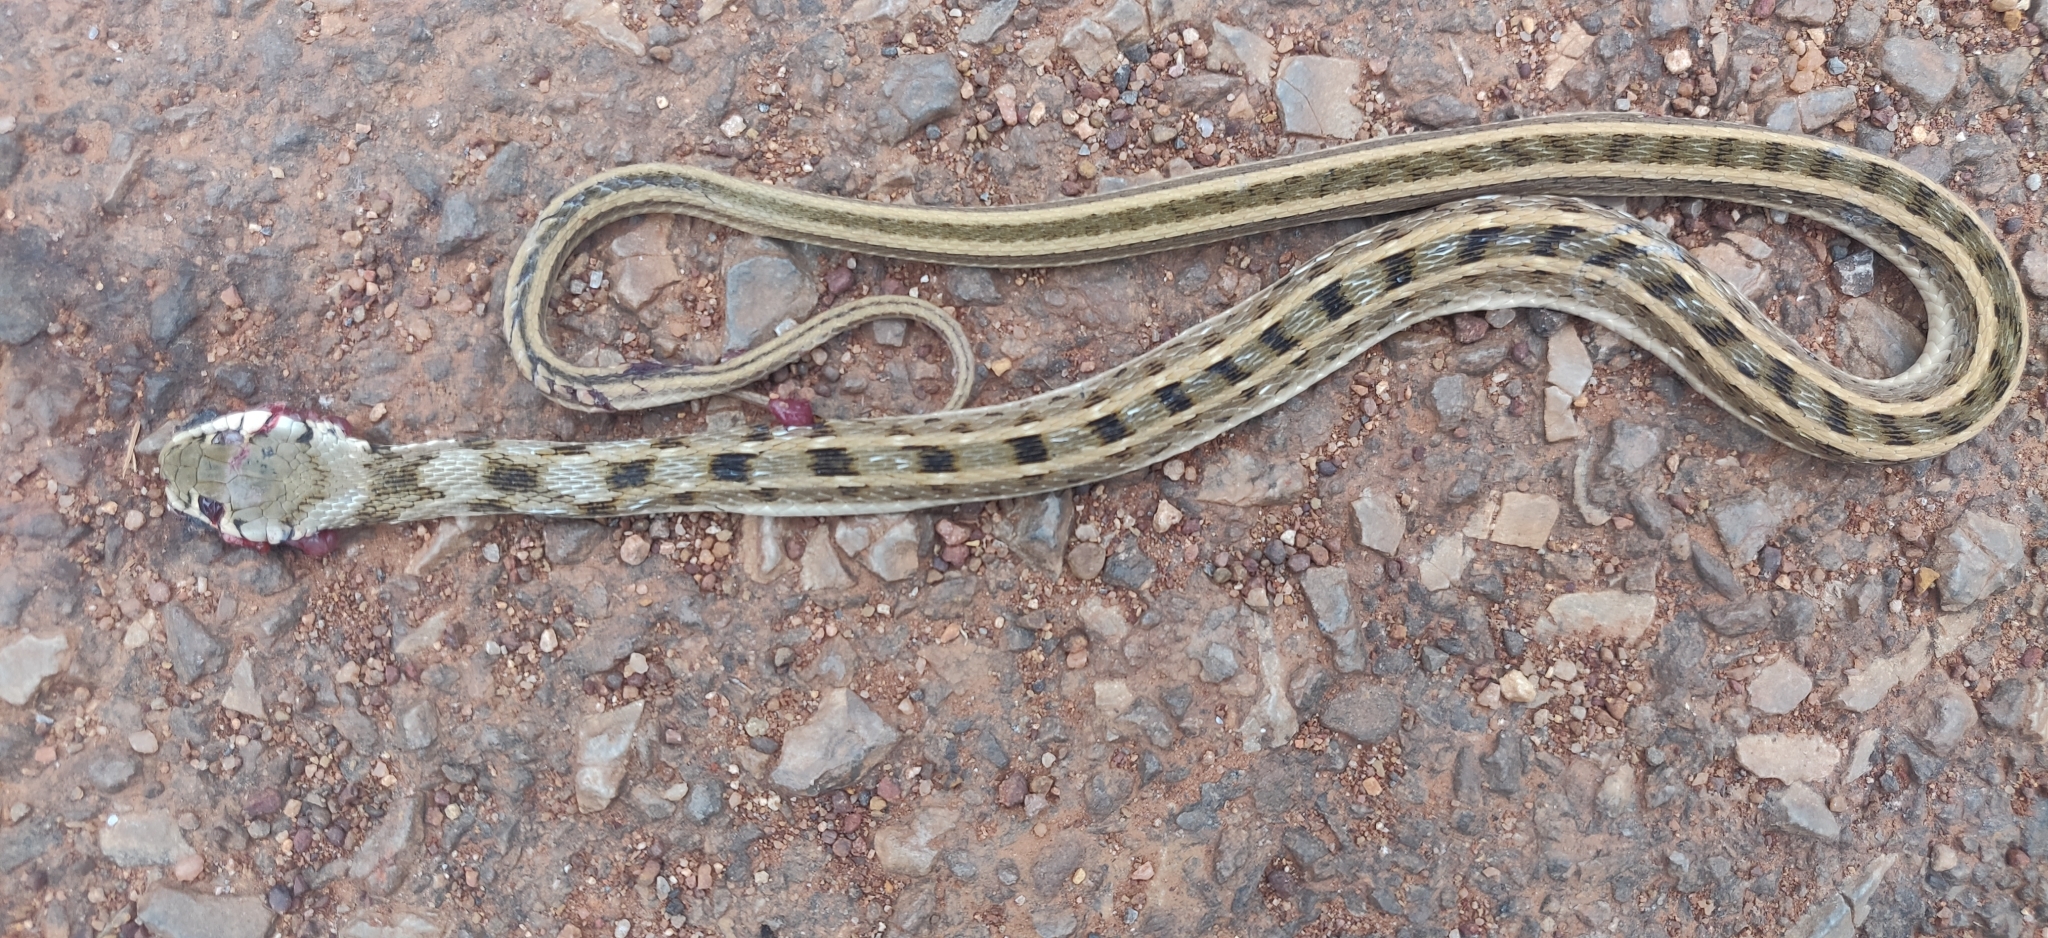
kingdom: Animalia
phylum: Chordata
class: Squamata
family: Colubridae
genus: Amphiesma
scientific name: Amphiesma stolatum
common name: Buff striped keelback
